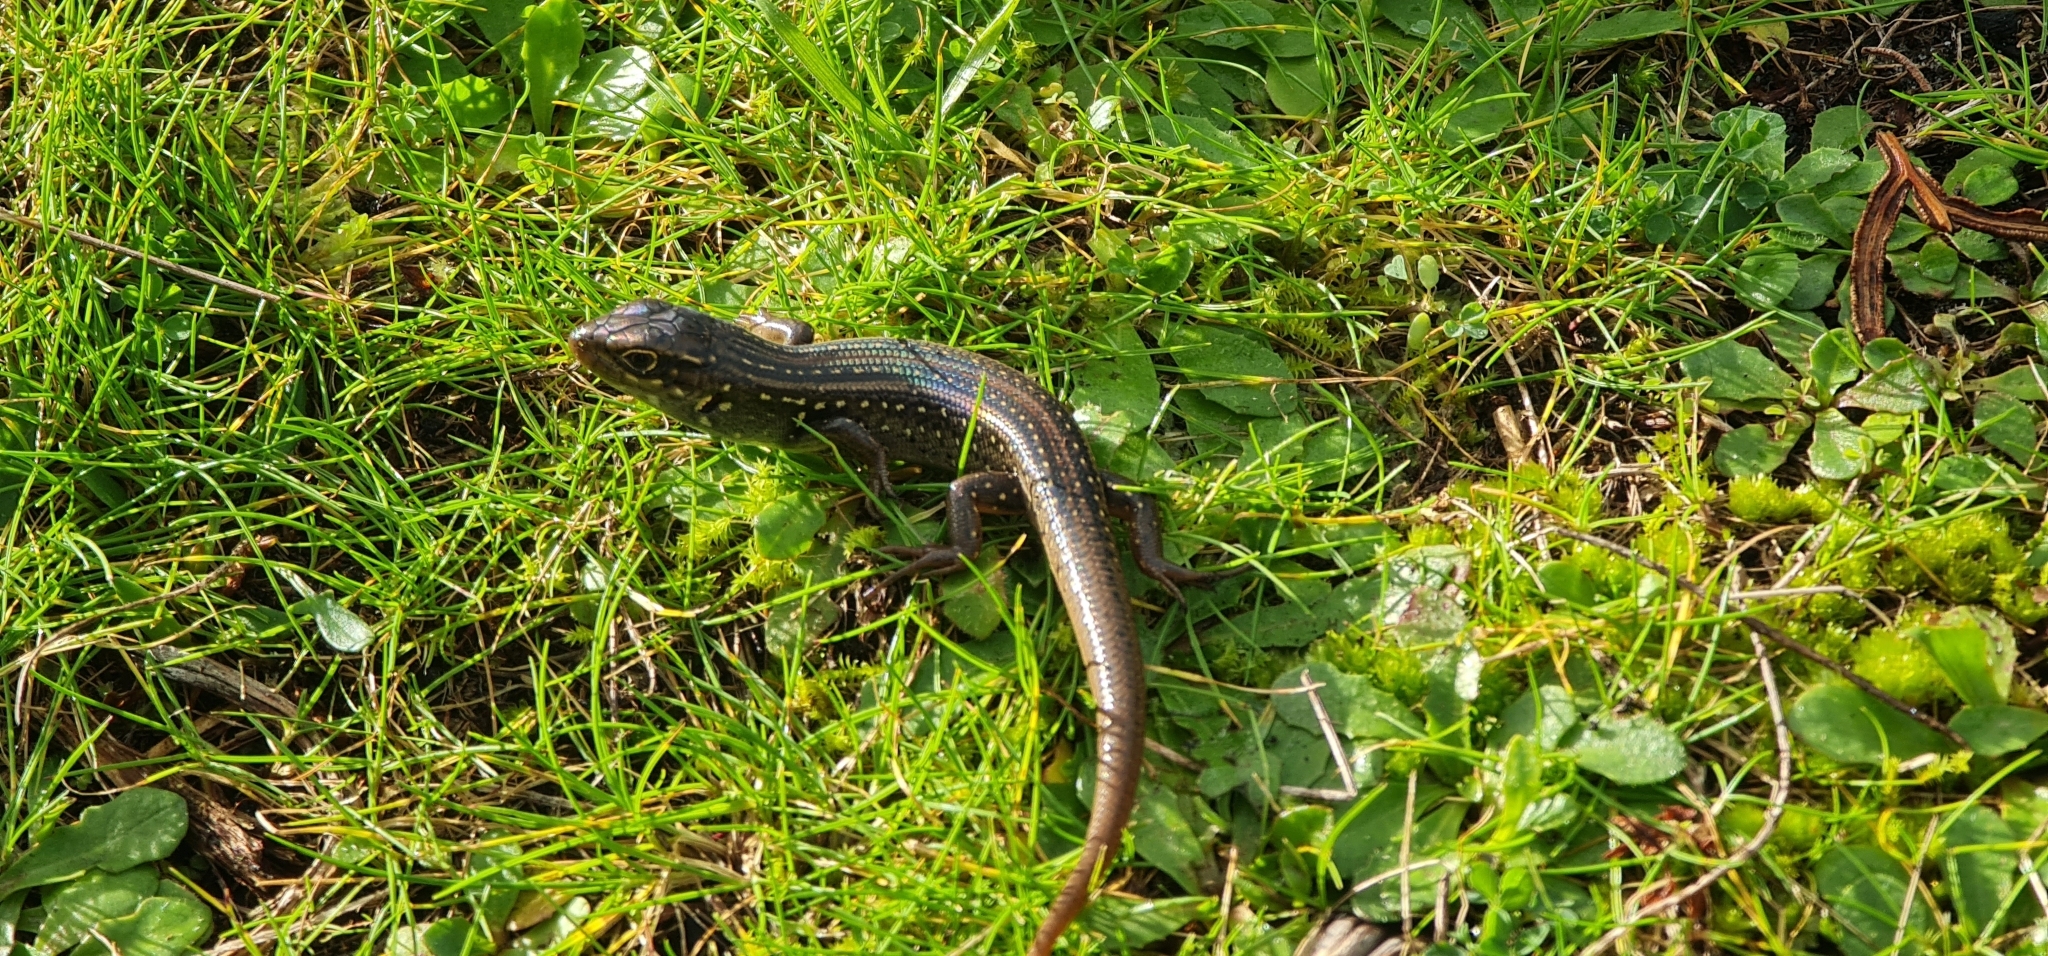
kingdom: Animalia
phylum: Chordata
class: Squamata
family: Scincidae
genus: Liopholis
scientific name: Liopholis whitii
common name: White's rock-skink
